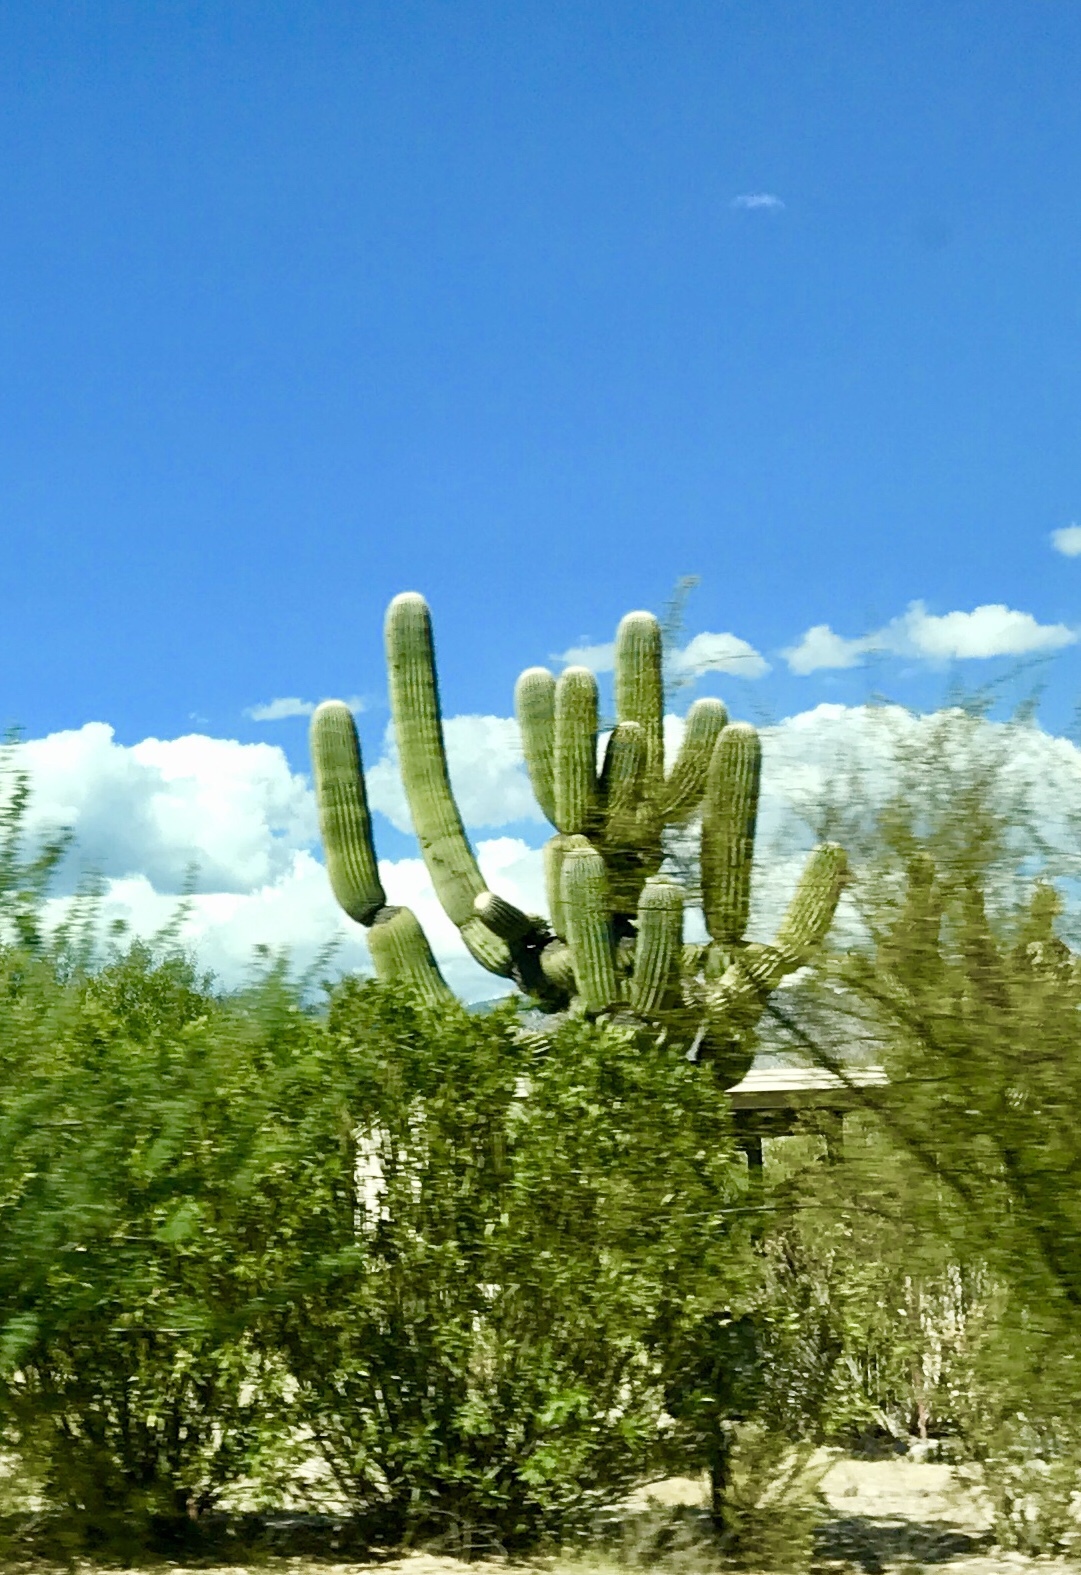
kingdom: Plantae
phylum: Tracheophyta
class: Magnoliopsida
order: Caryophyllales
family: Cactaceae
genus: Carnegiea
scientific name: Carnegiea gigantea
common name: Saguaro
